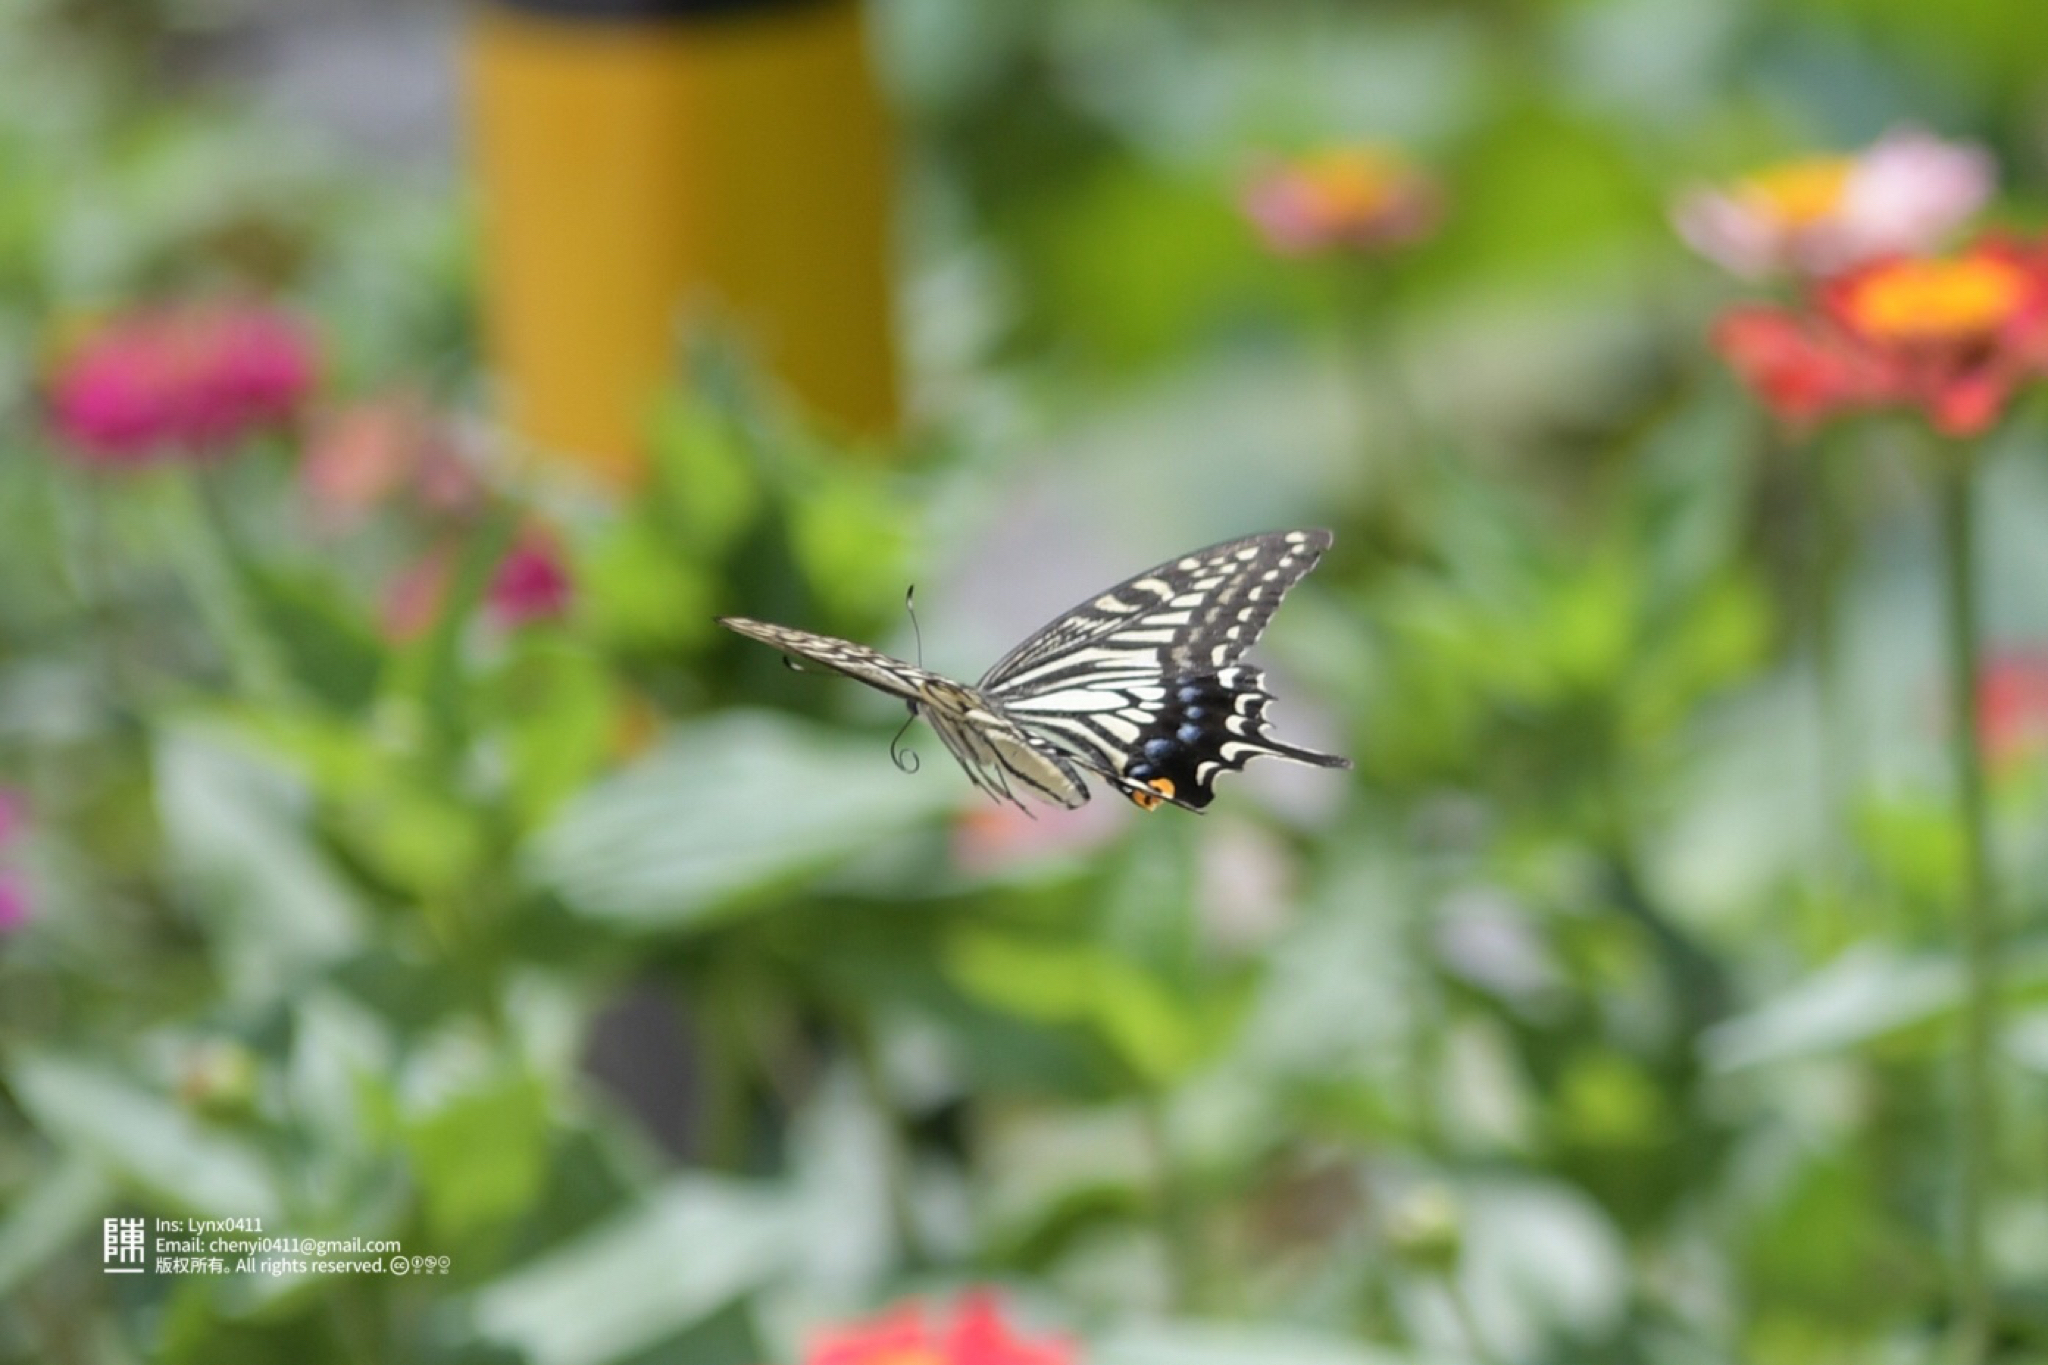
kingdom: Animalia
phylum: Arthropoda
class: Insecta
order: Lepidoptera
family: Papilionidae
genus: Papilio
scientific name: Papilio xuthus
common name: Asian swallowtail
